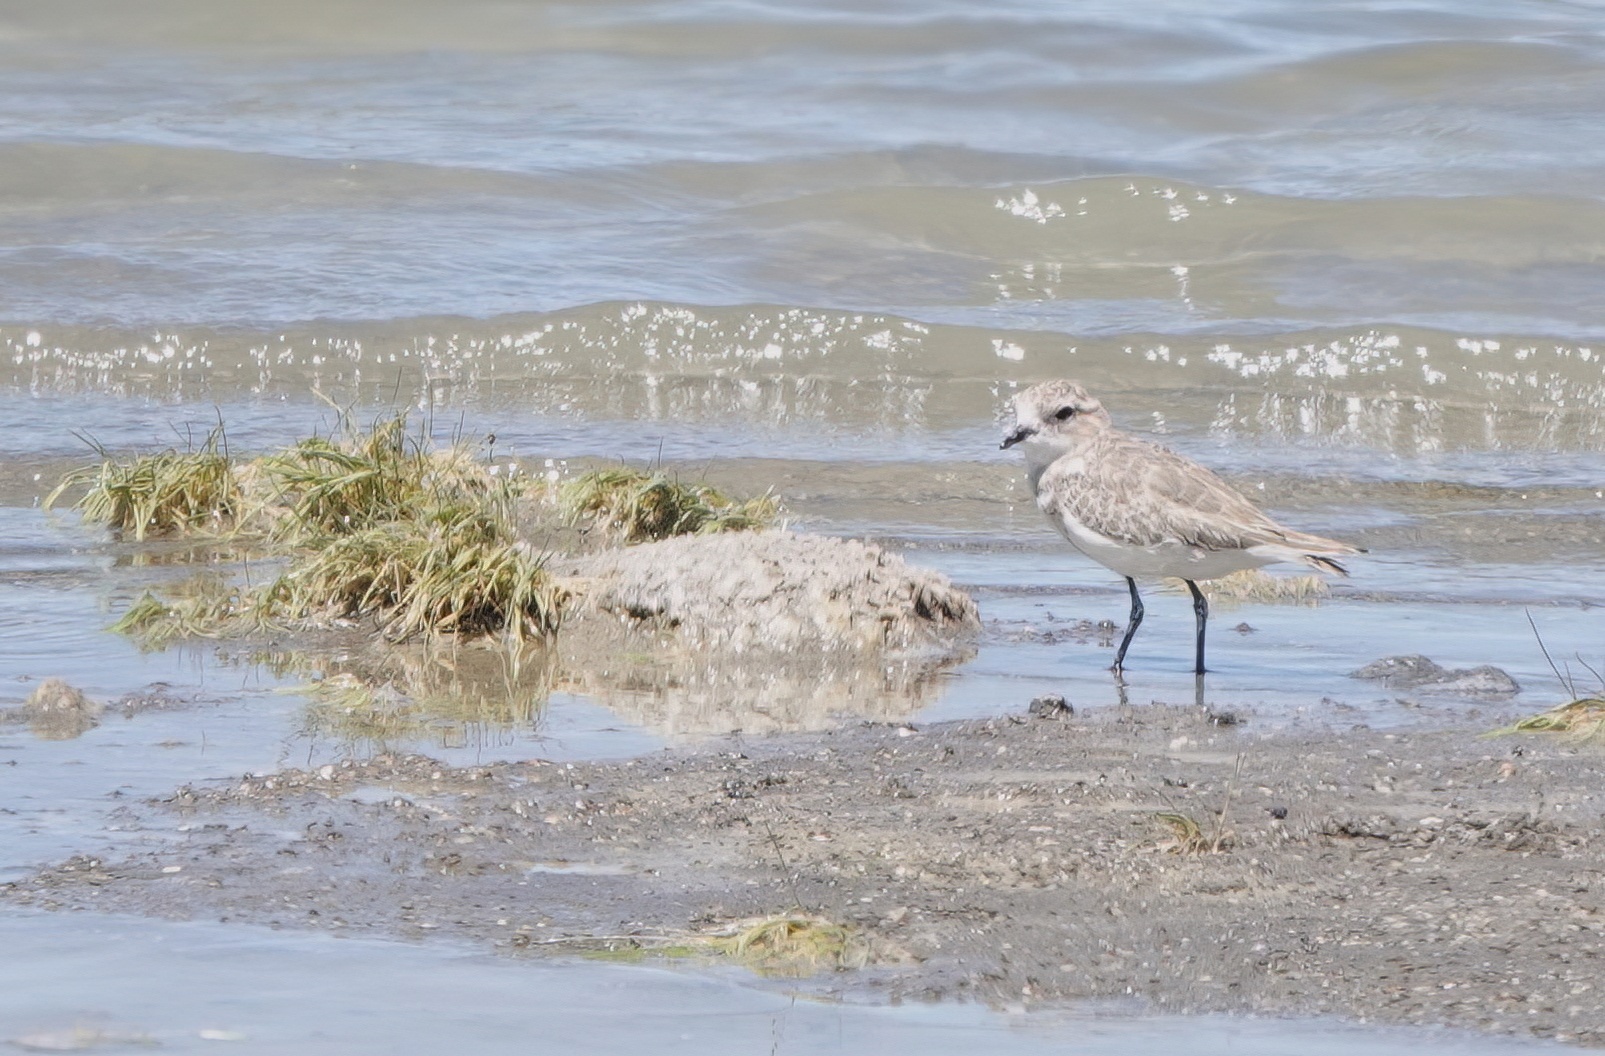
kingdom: Animalia
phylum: Chordata
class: Aves
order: Charadriiformes
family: Charadriidae
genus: Anarhynchus
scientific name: Anarhynchus
